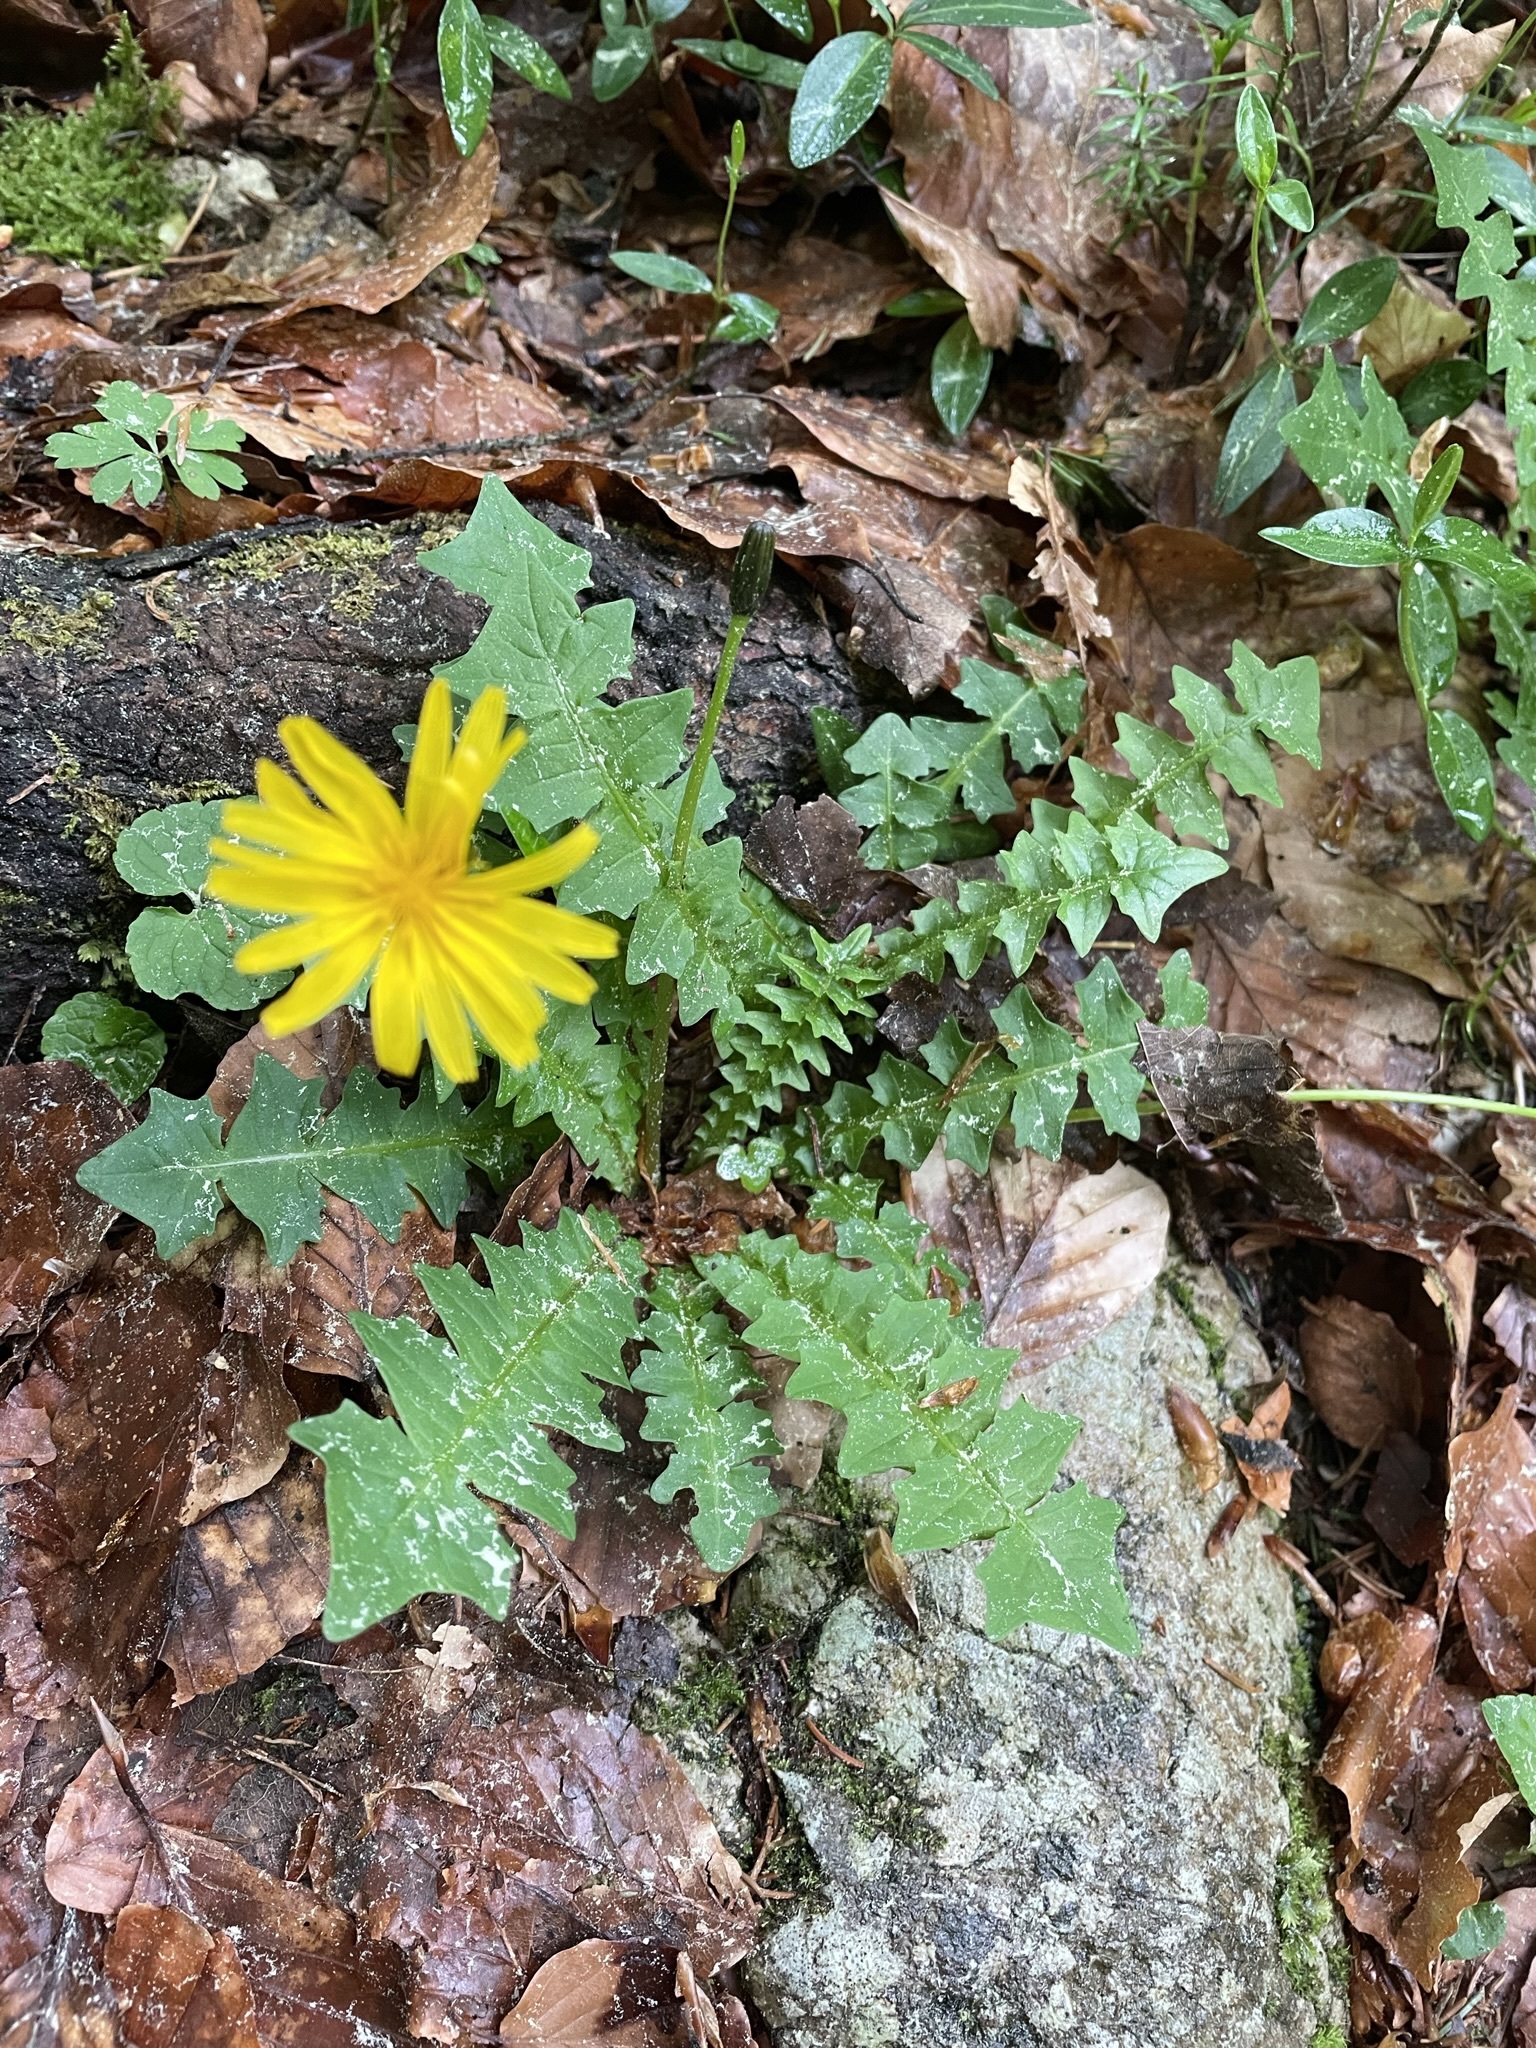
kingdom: Plantae
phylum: Tracheophyta
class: Magnoliopsida
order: Asterales
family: Asteraceae
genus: Aposeris
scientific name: Aposeris foetida
